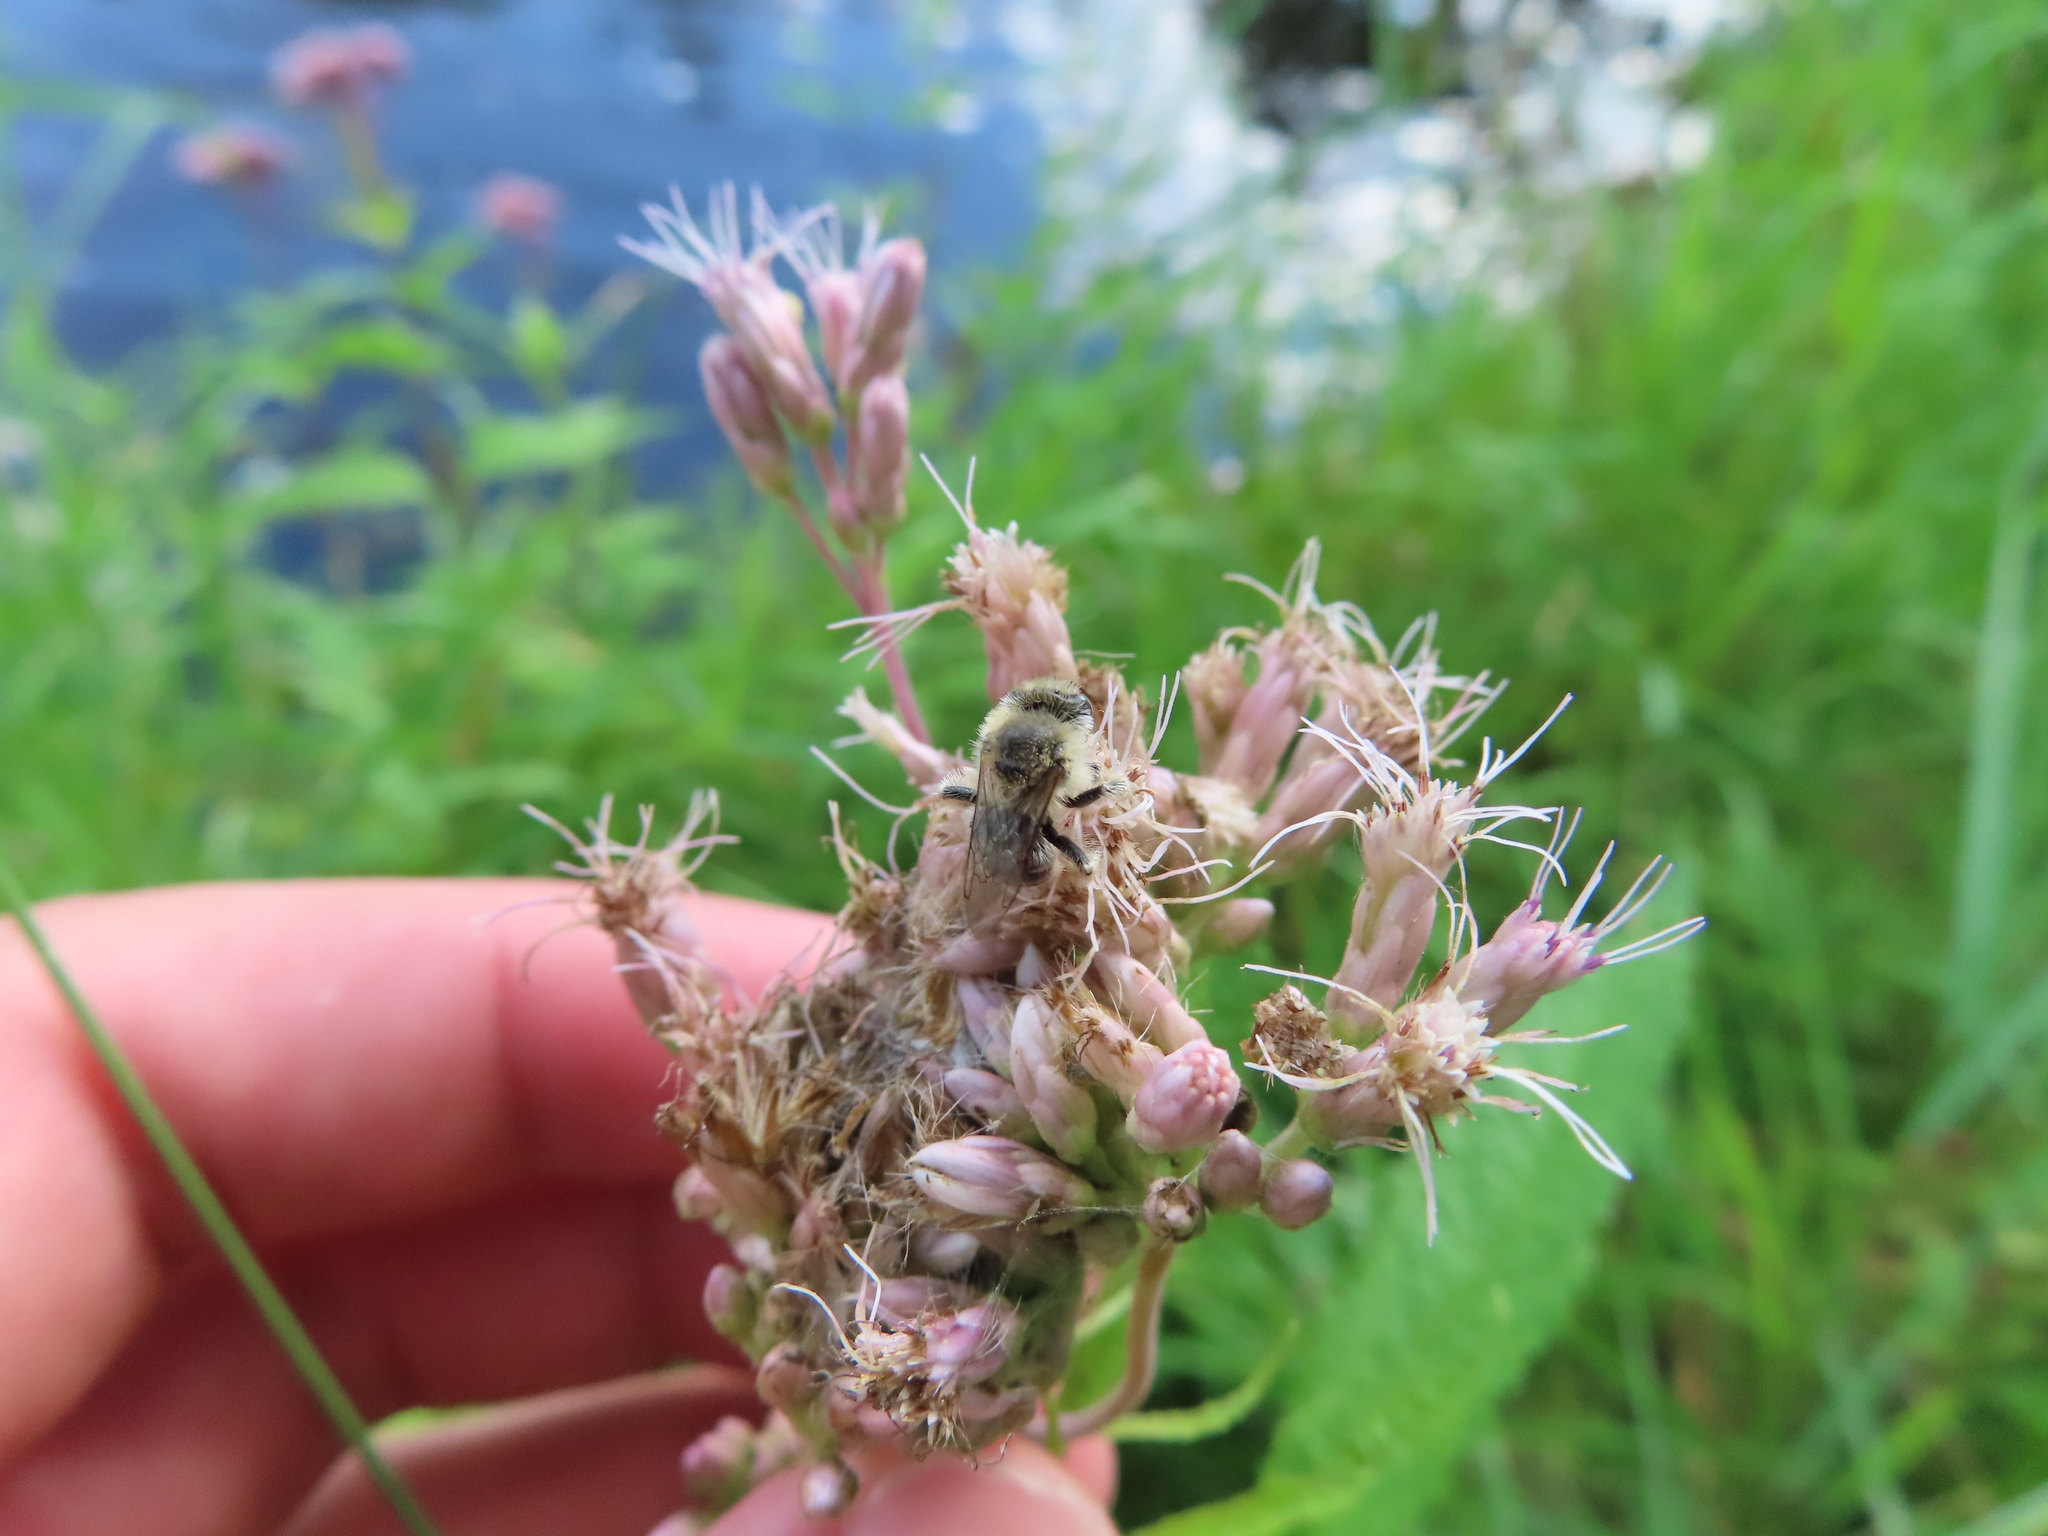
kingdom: Plantae
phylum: Tracheophyta
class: Magnoliopsida
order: Asterales
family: Asteraceae
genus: Eutrochium
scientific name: Eutrochium maculatum
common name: Spotted joe pye weed
